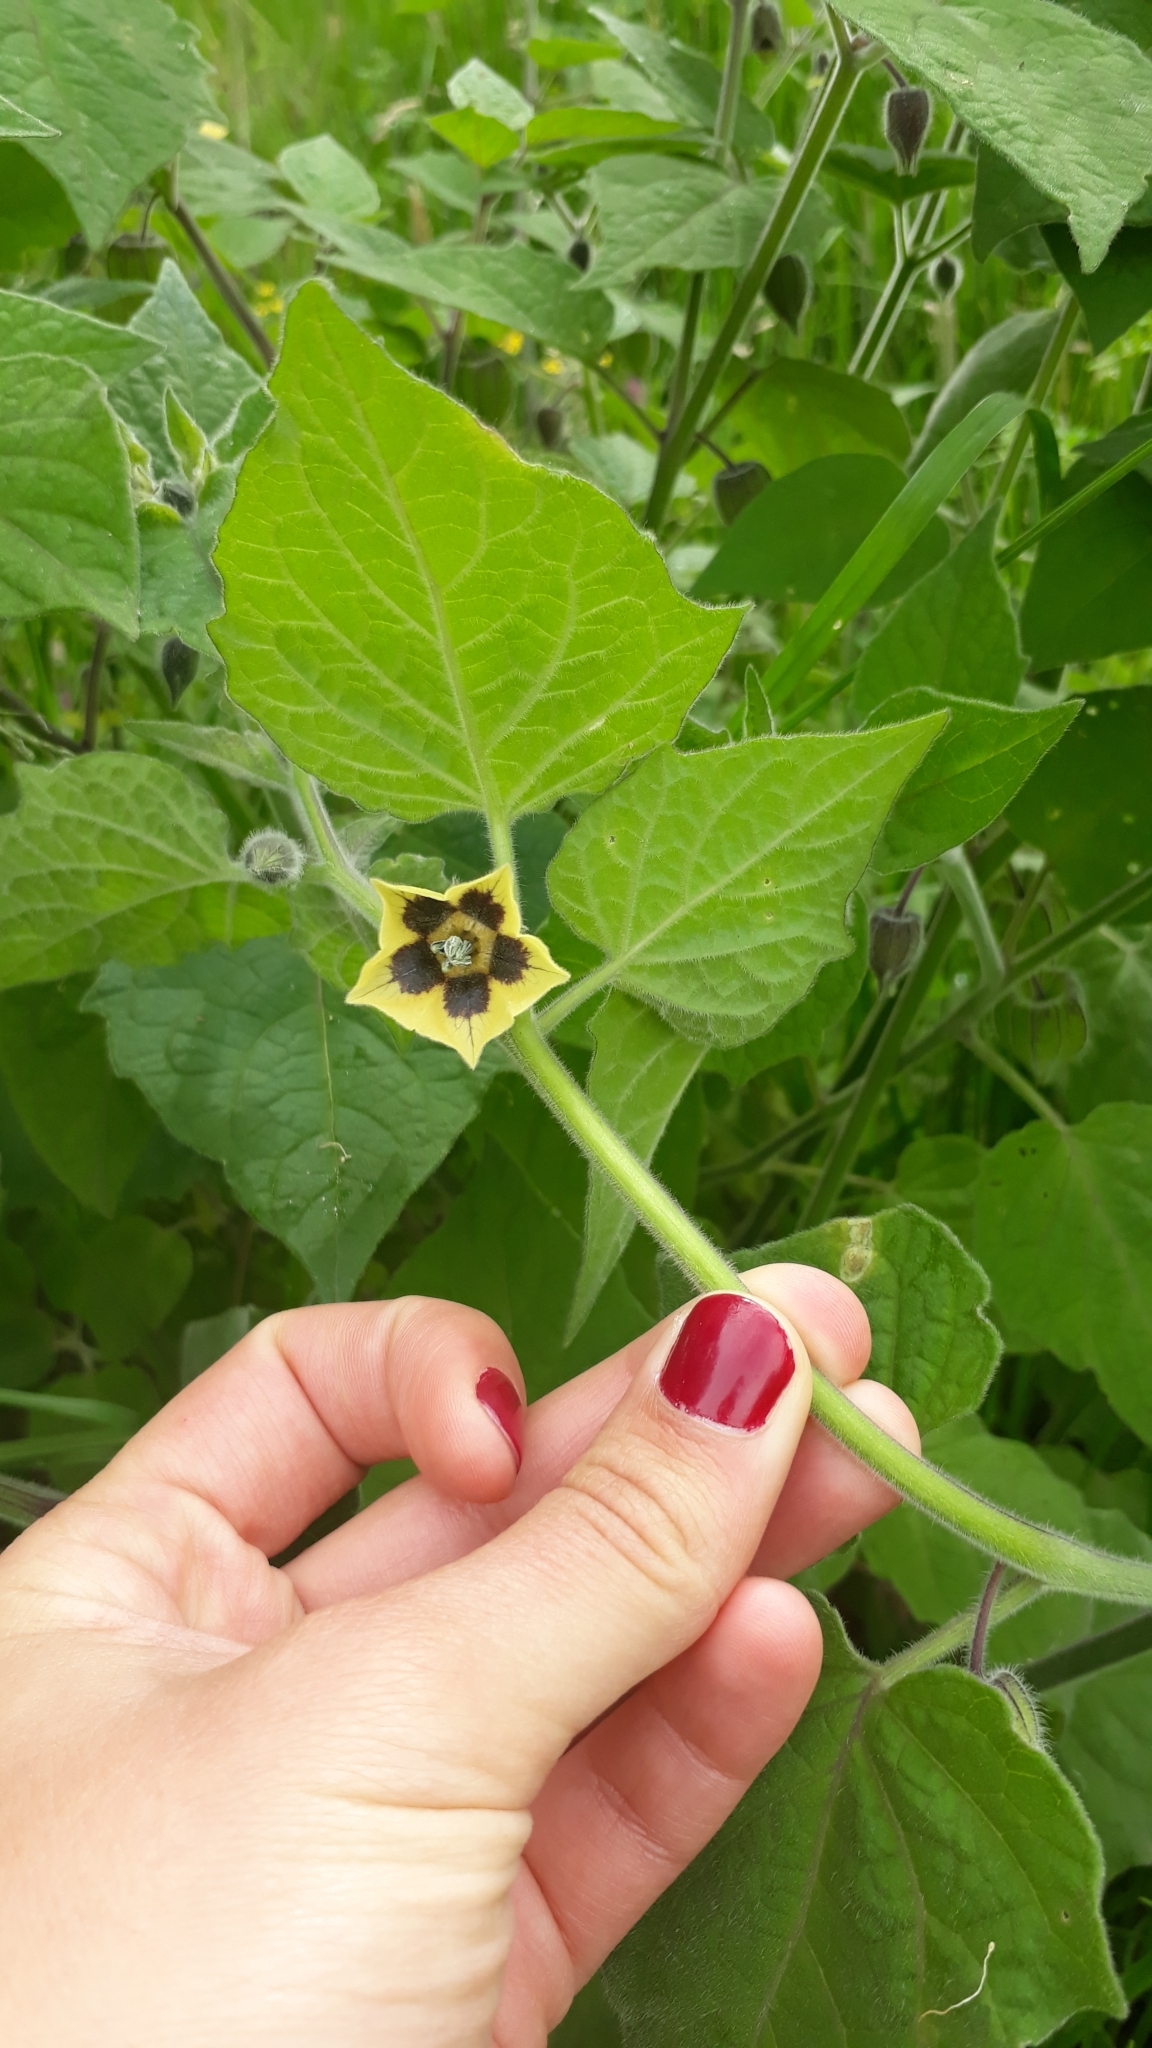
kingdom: Plantae
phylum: Tracheophyta
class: Magnoliopsida
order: Solanales
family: Solanaceae
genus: Physalis
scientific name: Physalis peruviana
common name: Cape-gooseberry
